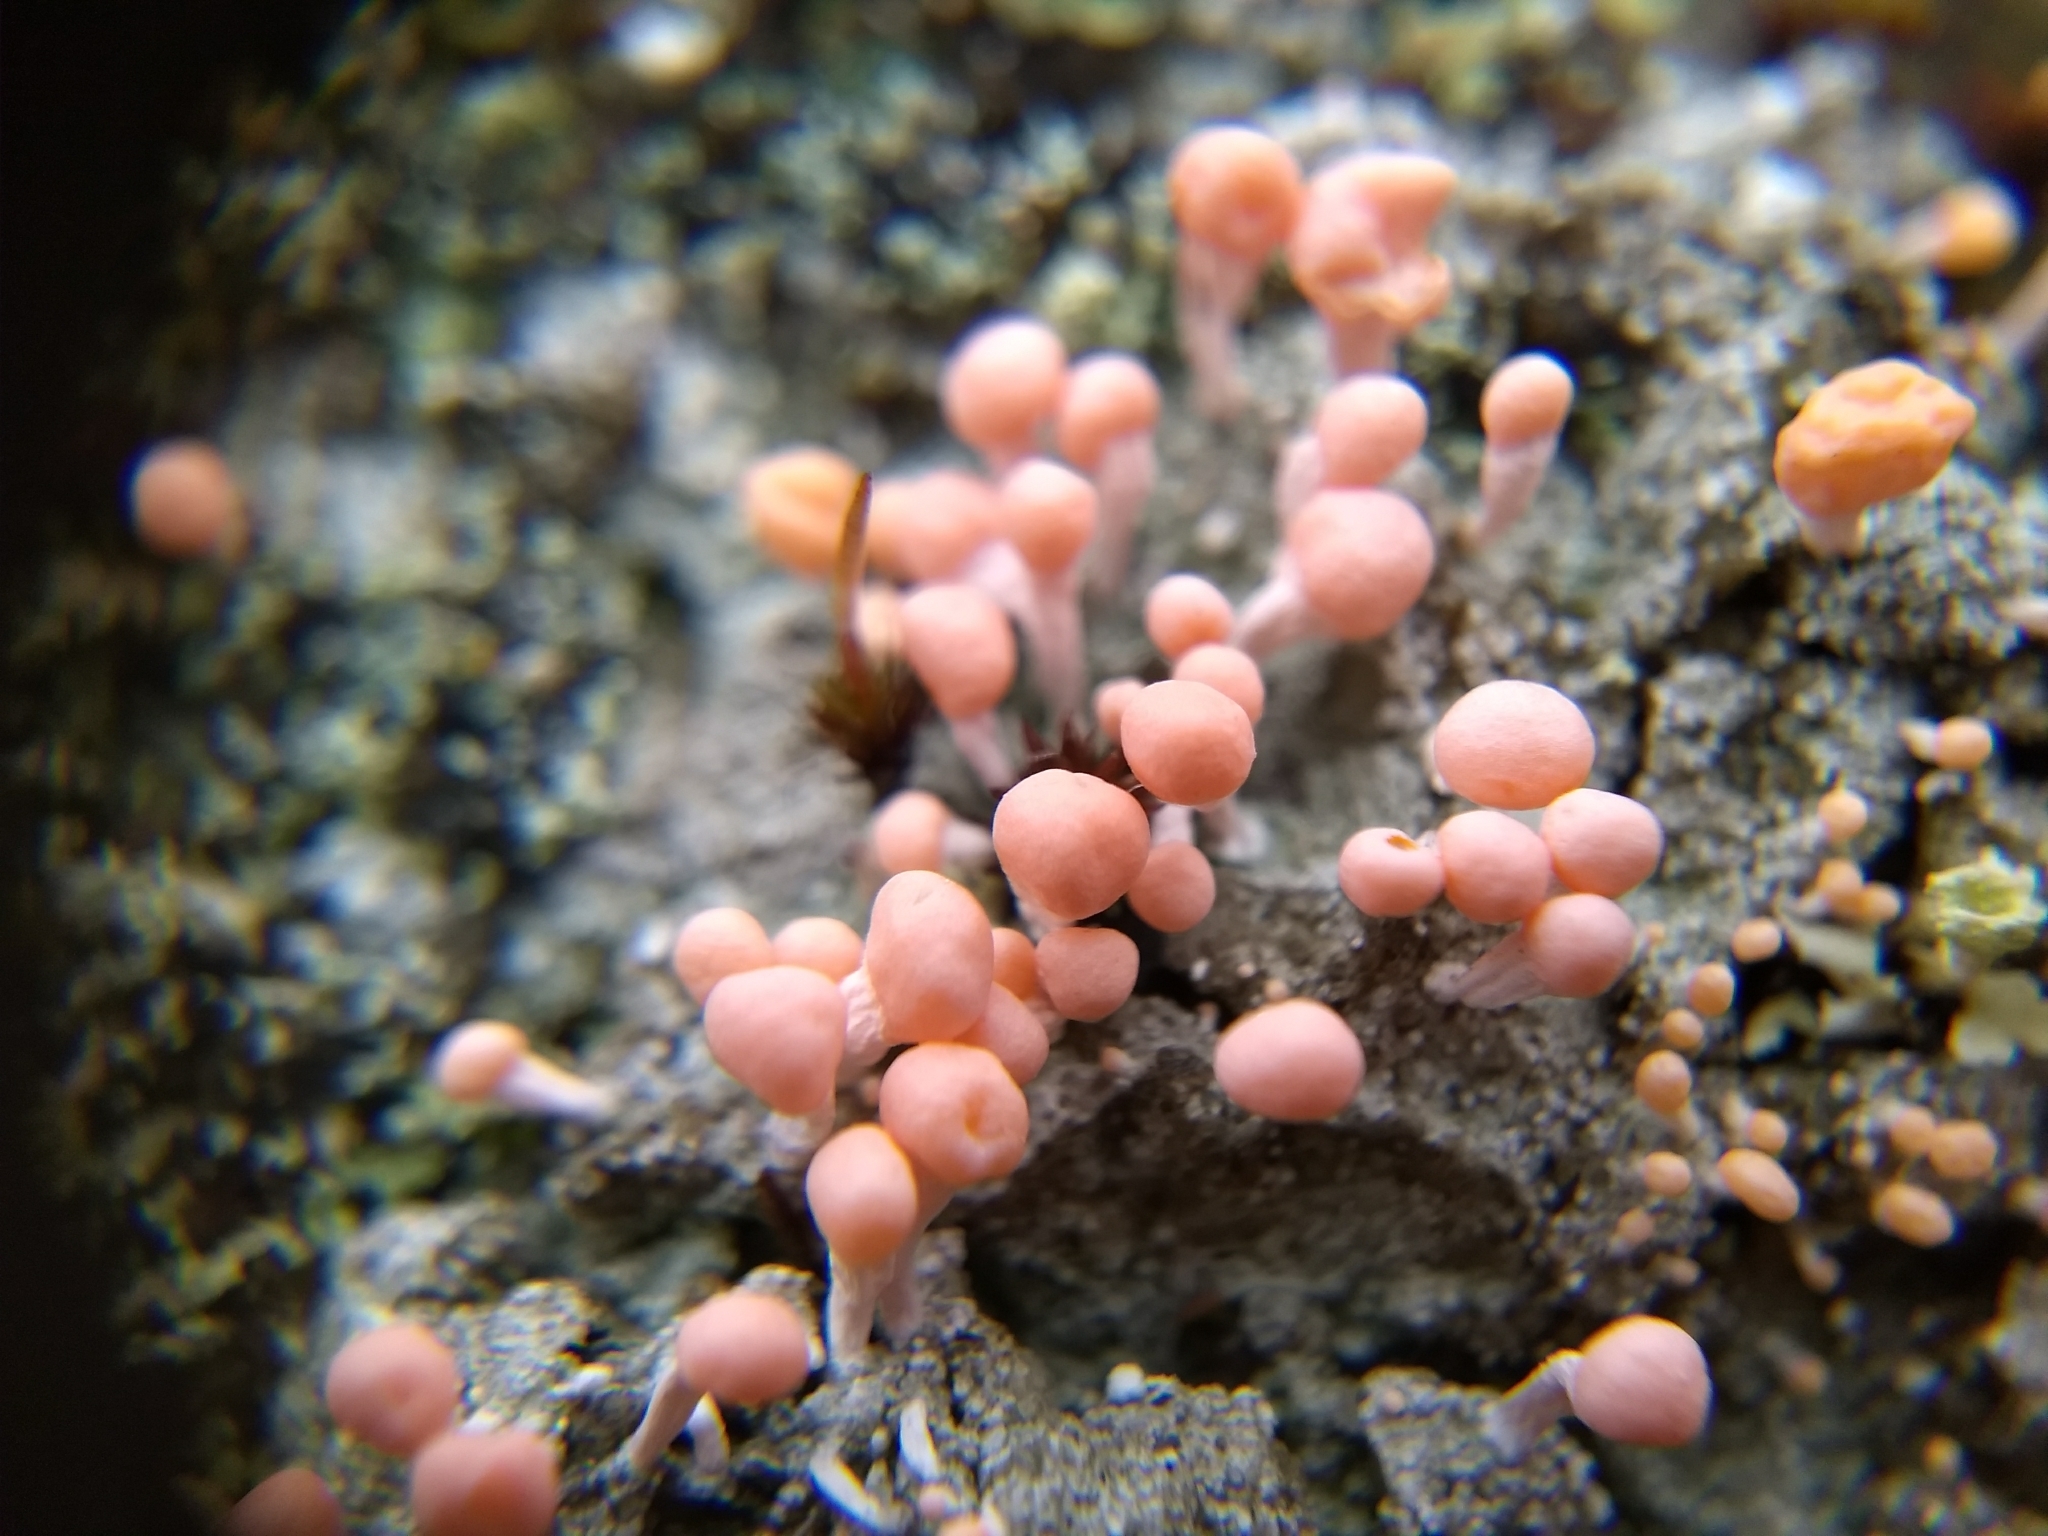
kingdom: Fungi
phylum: Ascomycota
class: Lecanoromycetes
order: Pertusariales
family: Icmadophilaceae
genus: Dibaeis
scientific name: Dibaeis baeomyces
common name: Pink earth lichen
